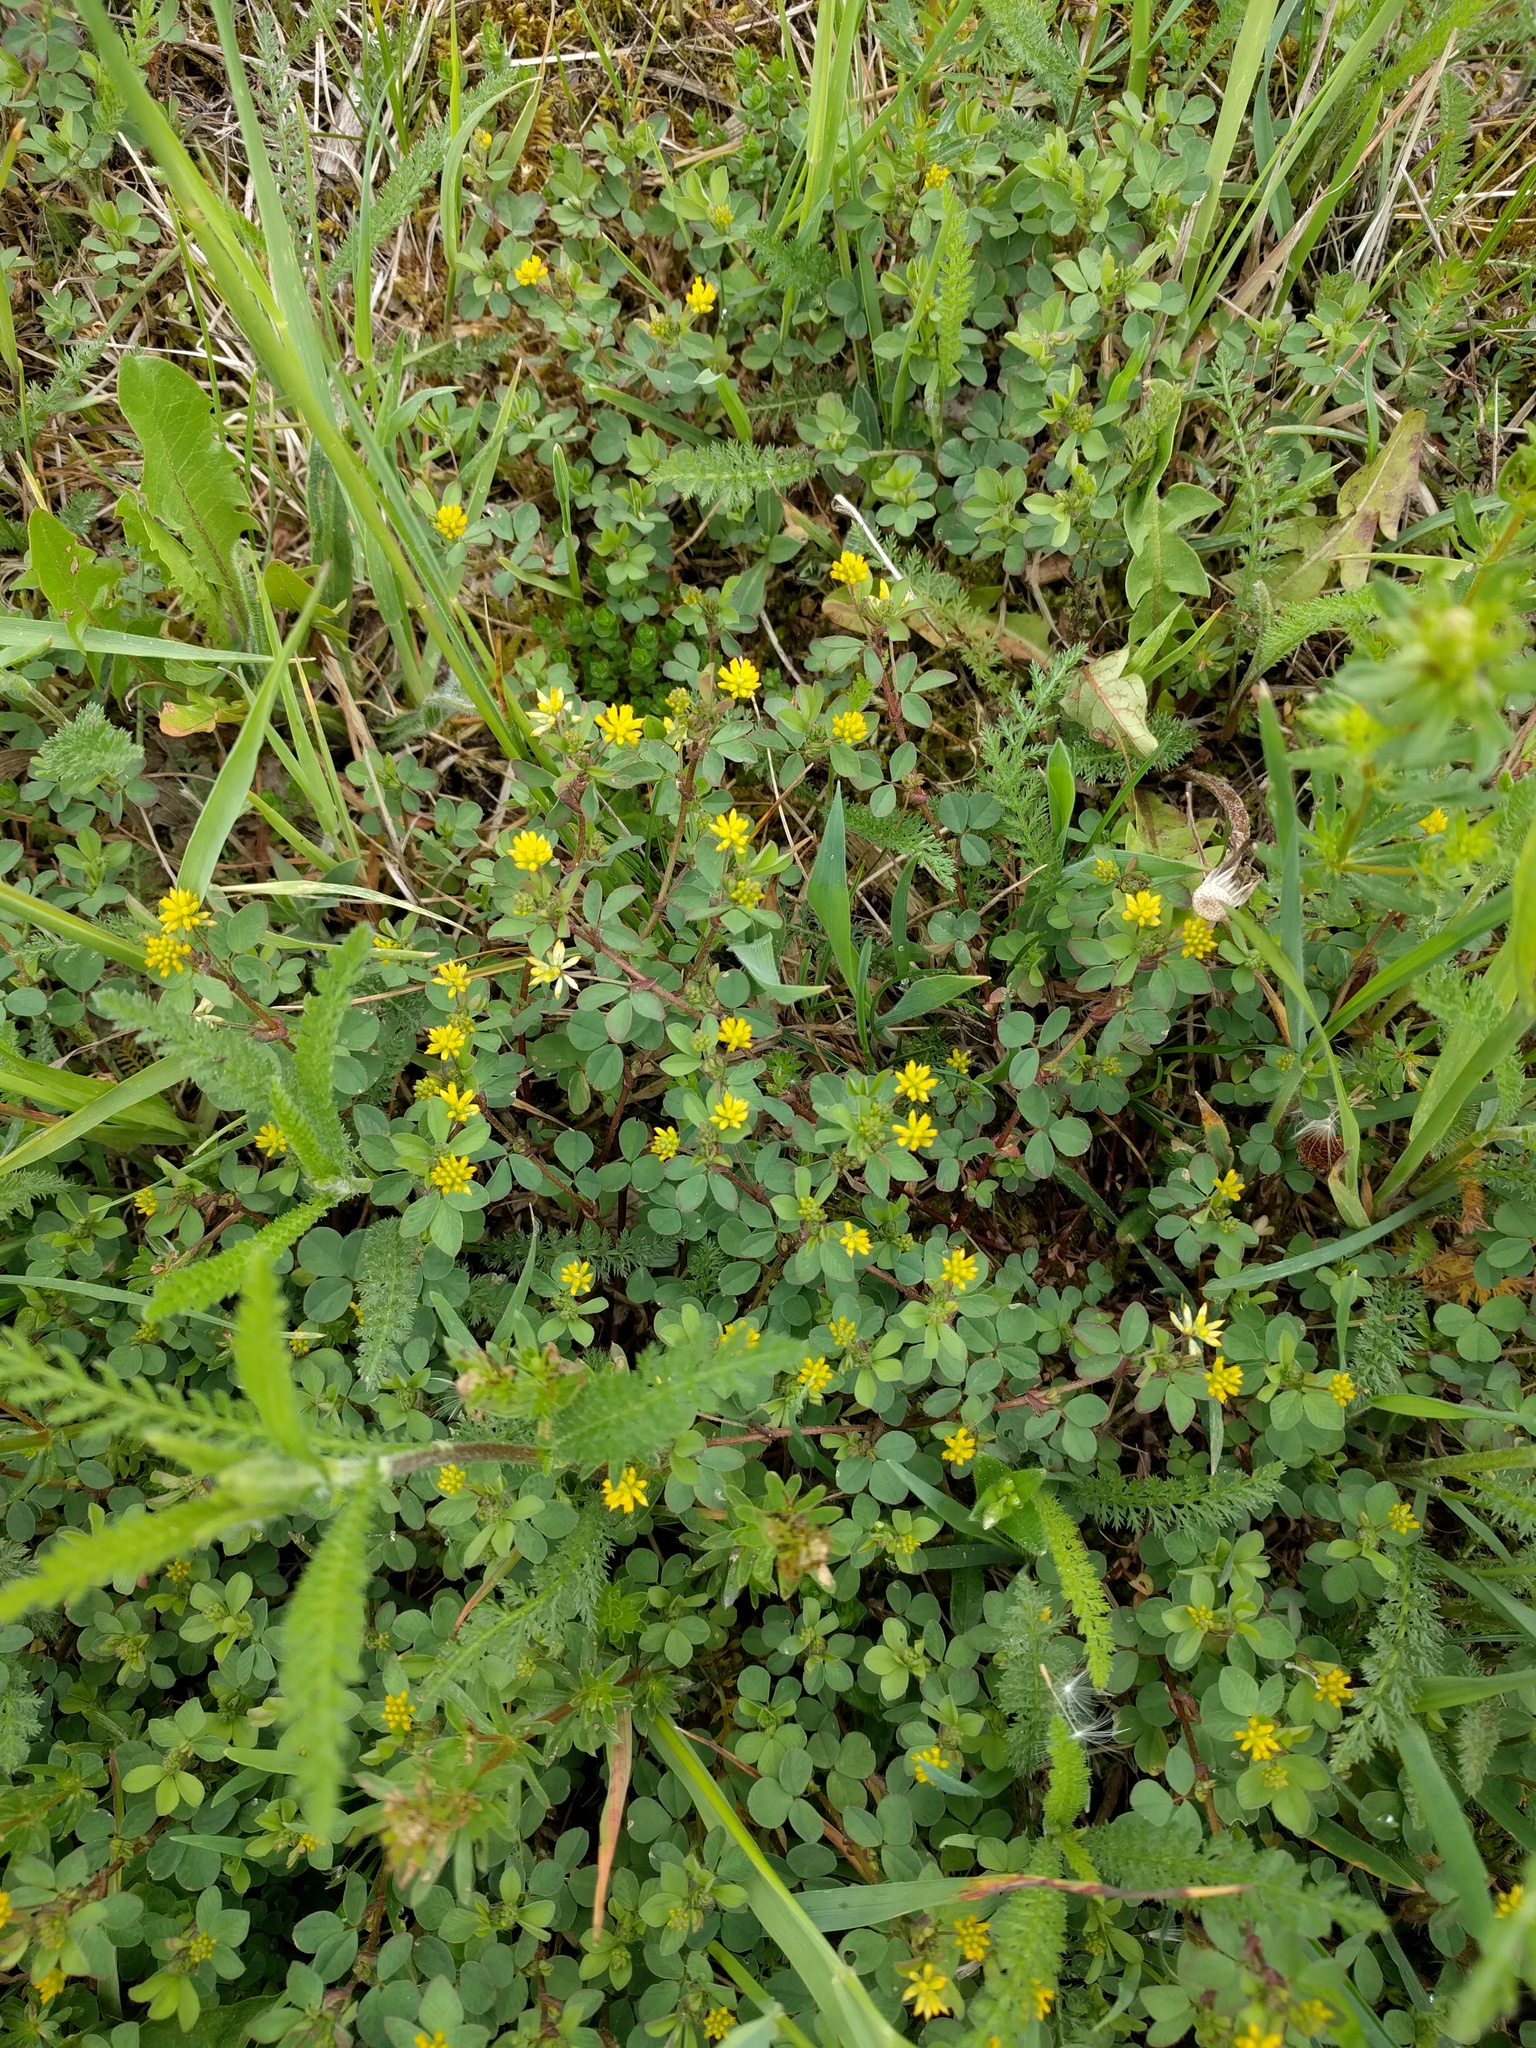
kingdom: Plantae
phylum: Tracheophyta
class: Magnoliopsida
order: Fabales
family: Fabaceae
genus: Trifolium
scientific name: Trifolium dubium
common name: Suckling clover
